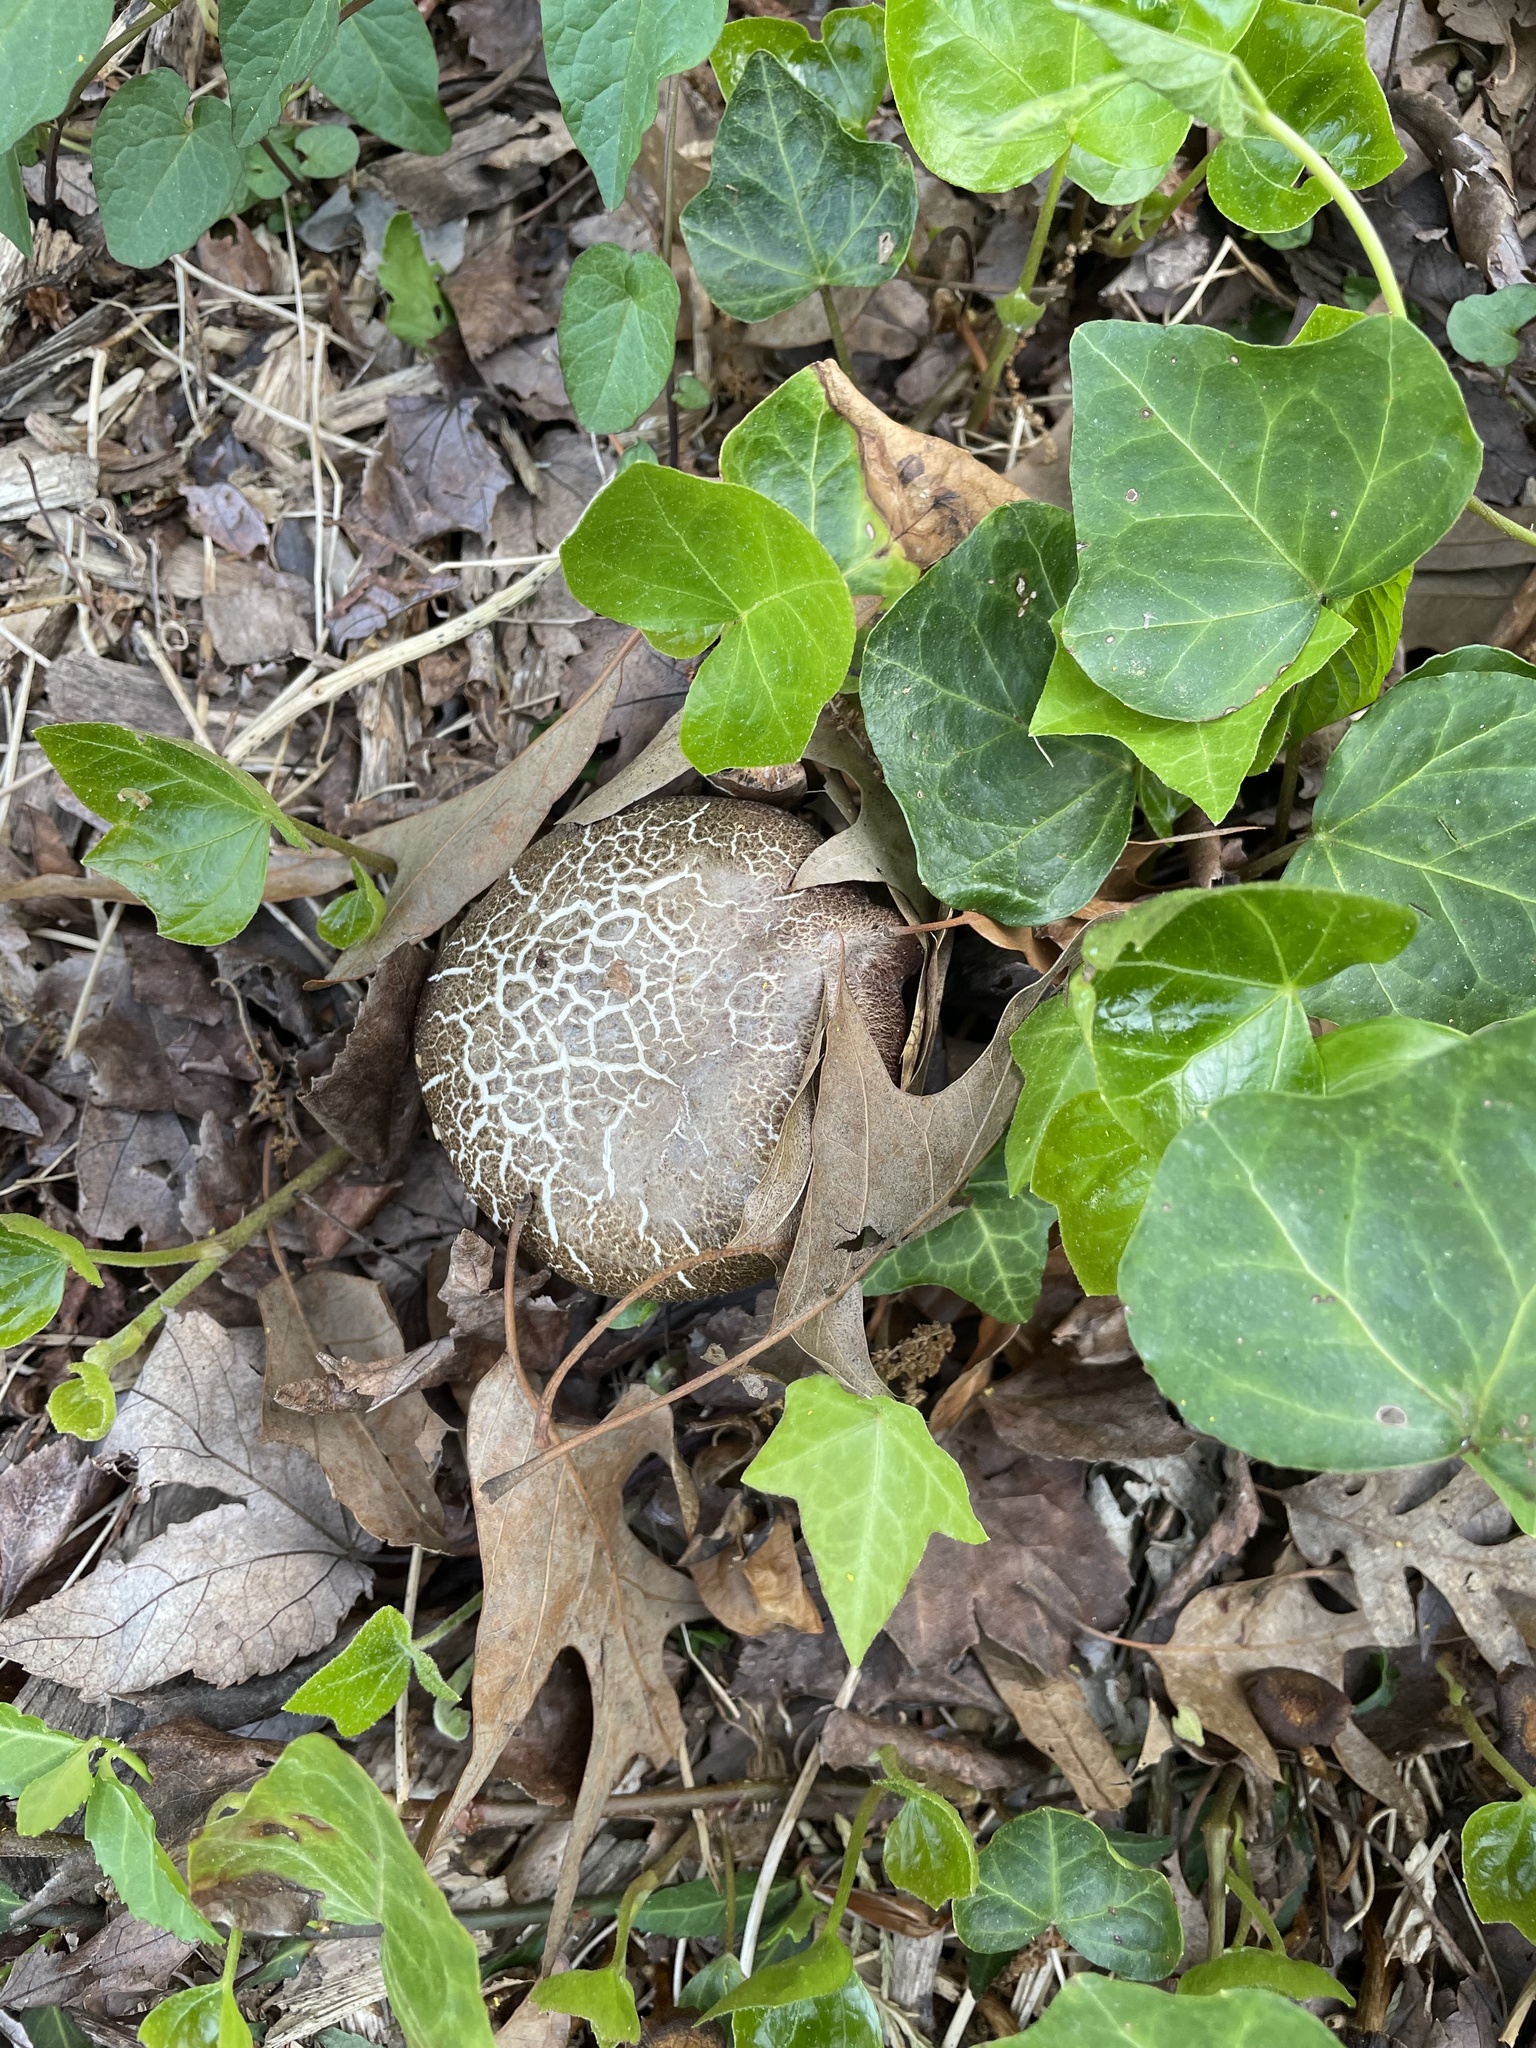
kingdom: Fungi
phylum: Basidiomycota
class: Agaricomycetes
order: Agaricales
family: Strophariaceae
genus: Stropharia
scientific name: Stropharia rugosoannulata
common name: Wine roundhead
